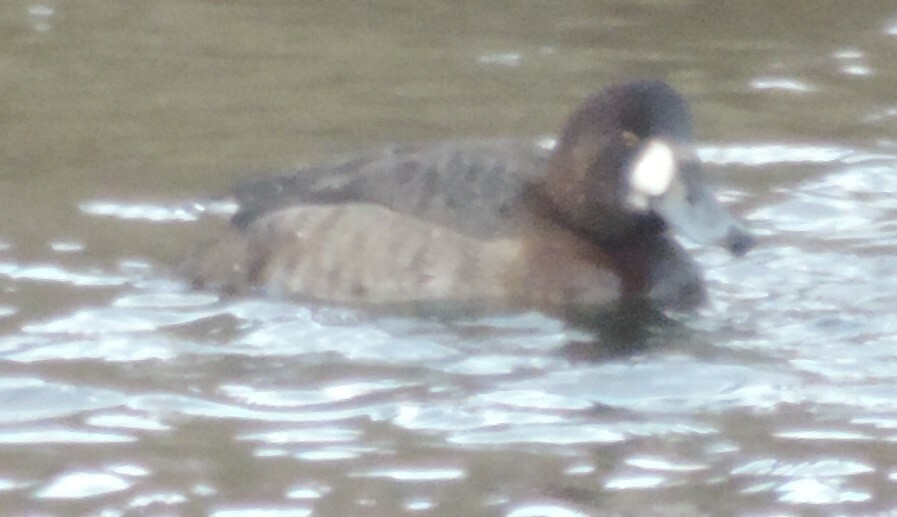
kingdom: Animalia
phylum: Chordata
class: Aves
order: Anseriformes
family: Anatidae
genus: Aythya
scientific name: Aythya marila
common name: Greater scaup
